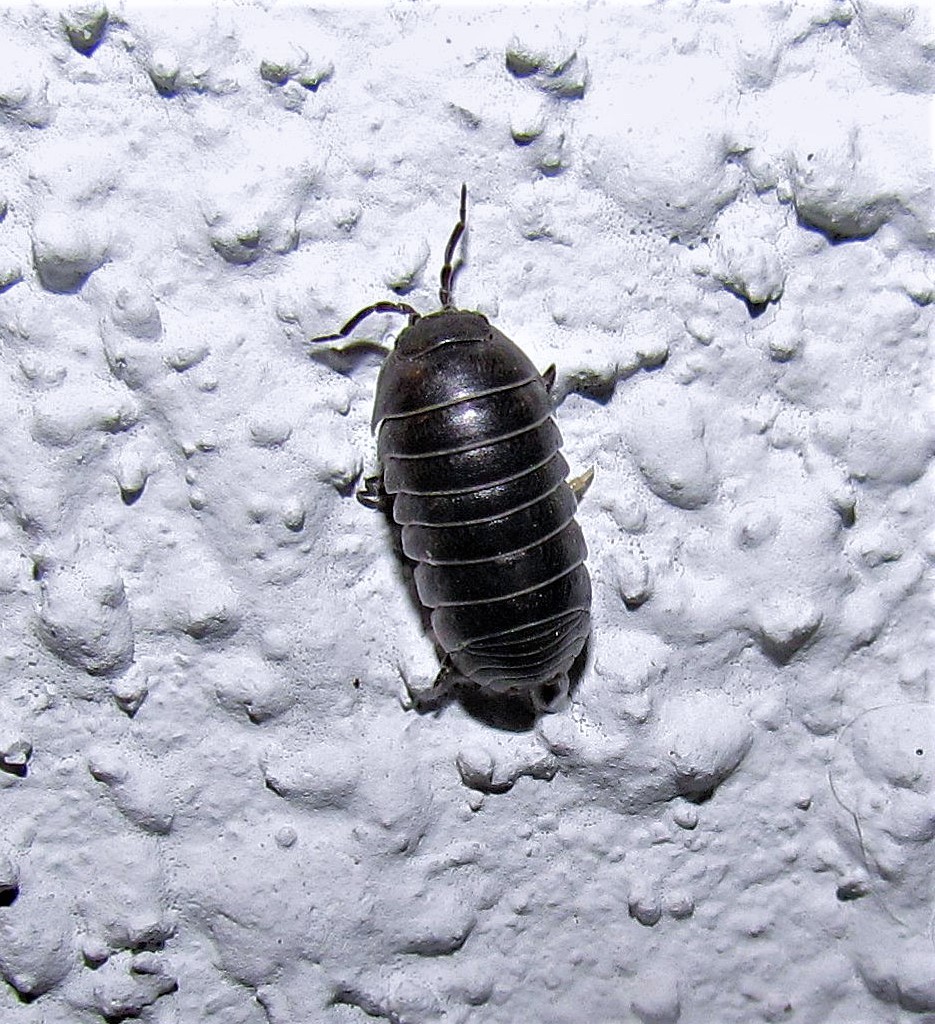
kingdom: Animalia
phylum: Arthropoda
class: Malacostraca
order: Isopoda
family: Armadillidiidae
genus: Armadillidium
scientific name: Armadillidium vulgare
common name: Common pill woodlouse
